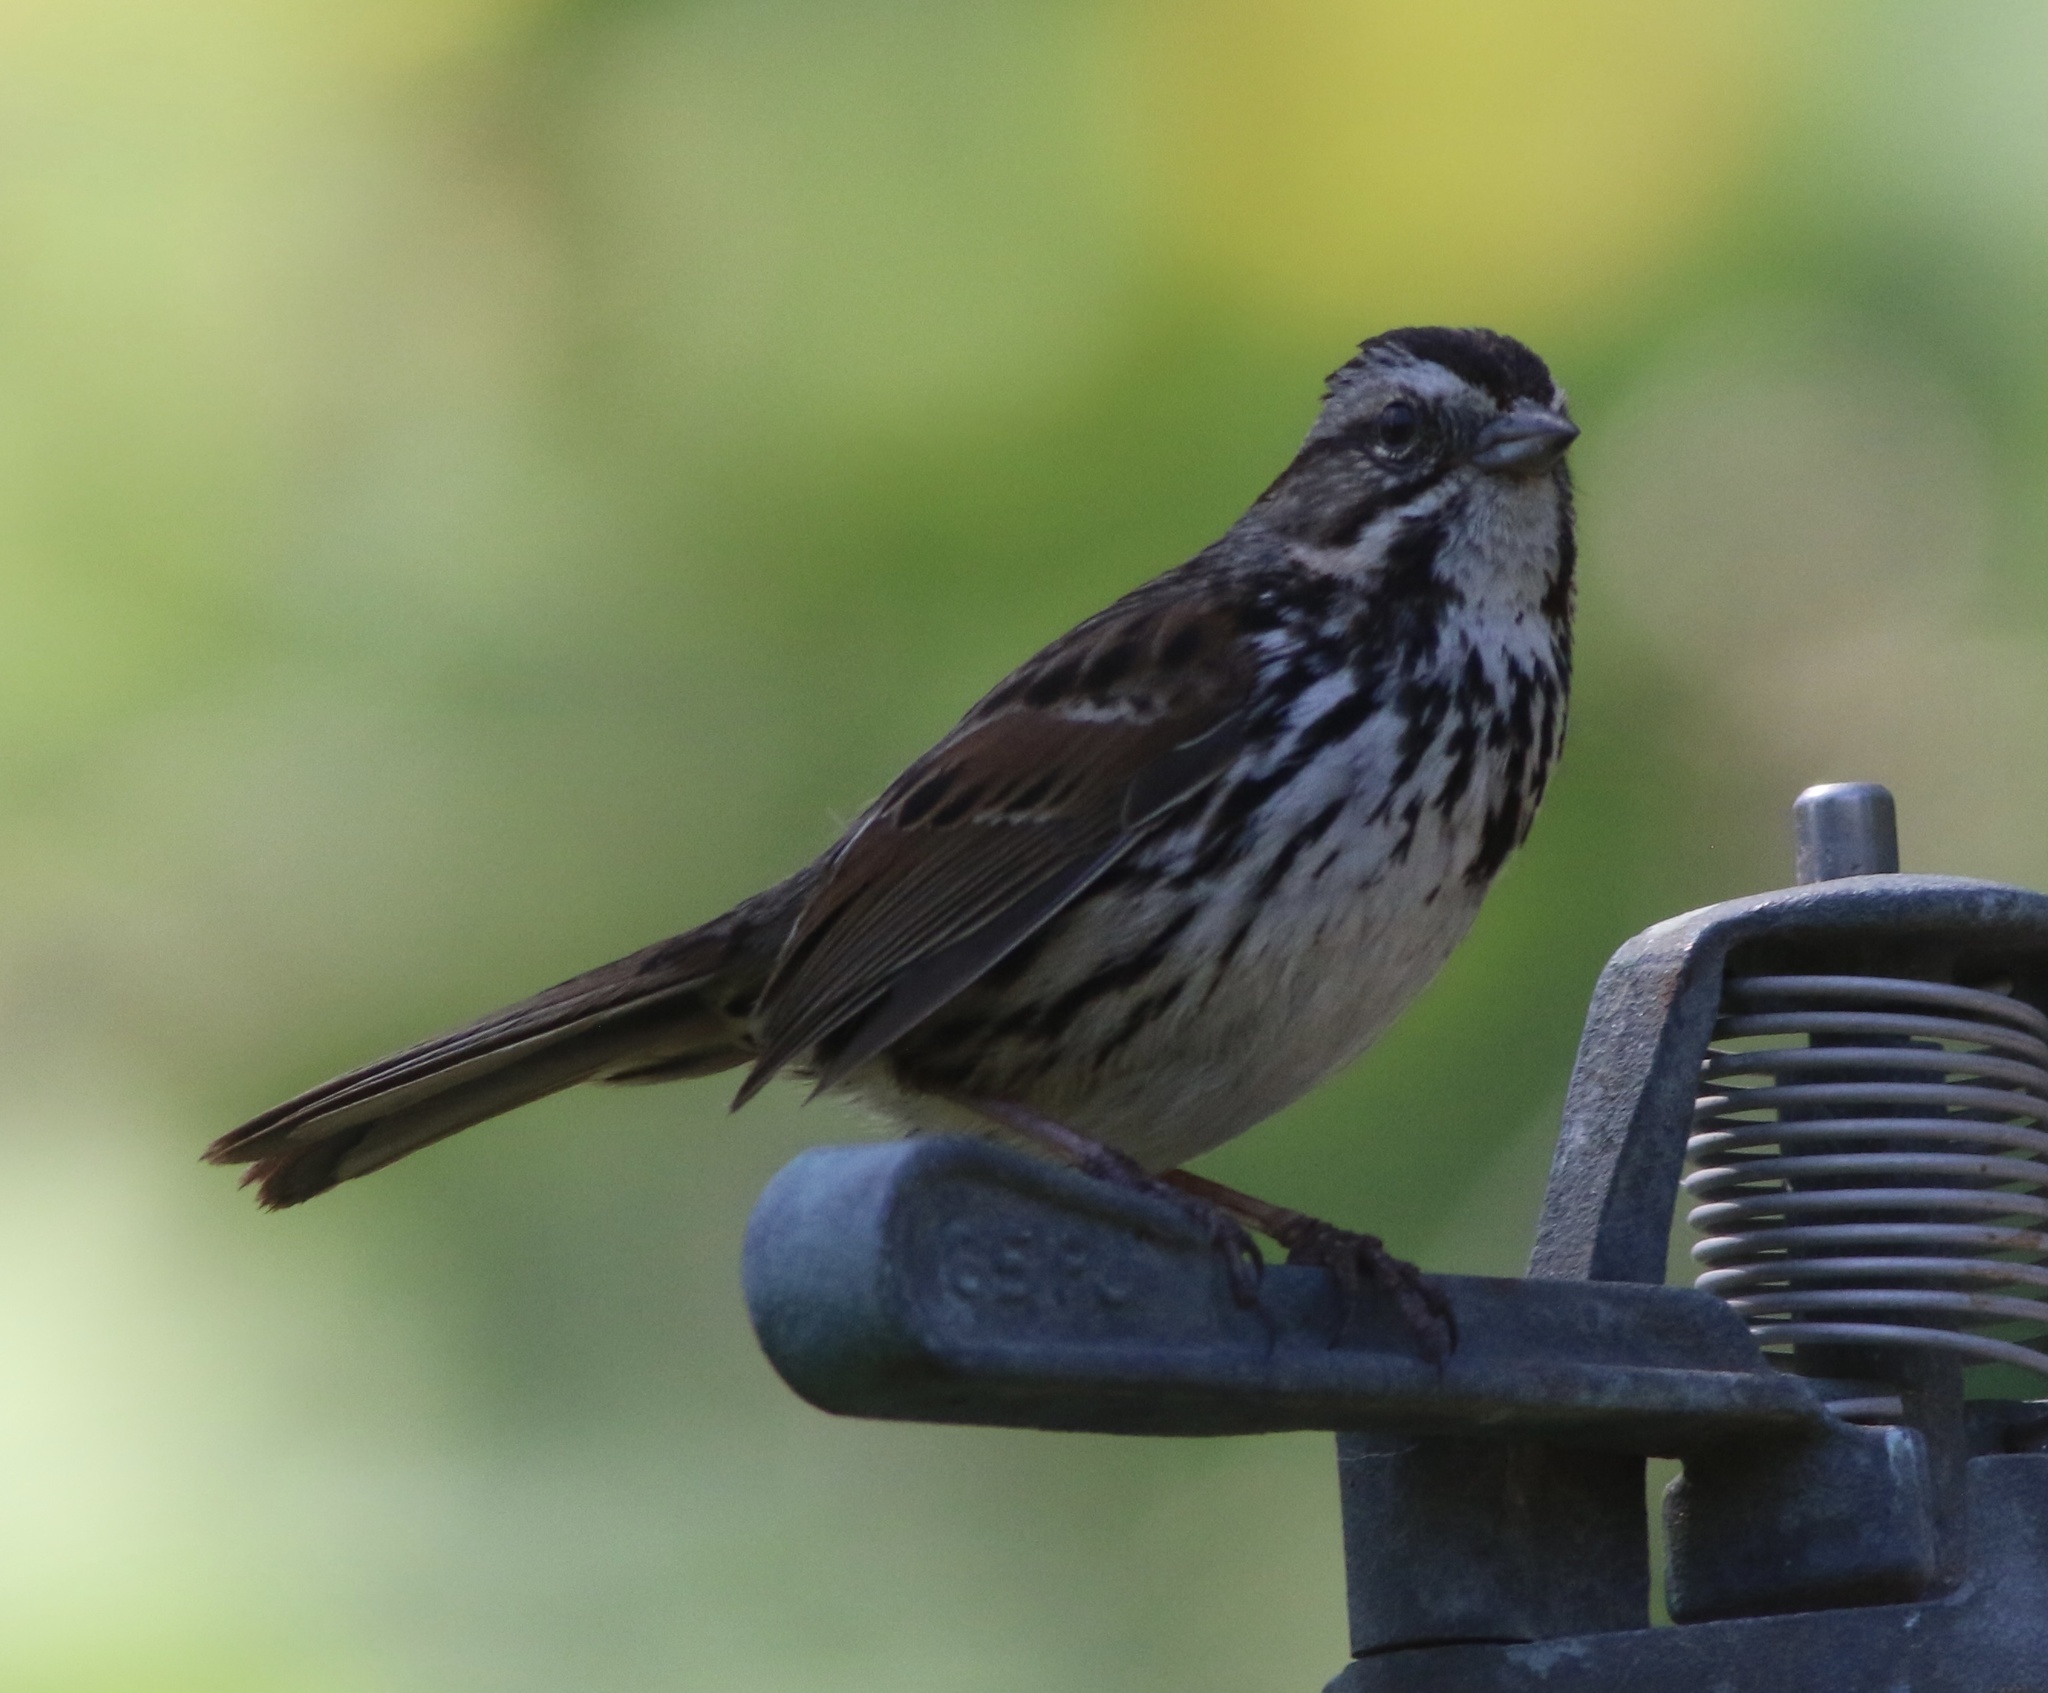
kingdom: Animalia
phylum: Chordata
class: Aves
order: Passeriformes
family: Passerellidae
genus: Melospiza
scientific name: Melospiza melodia
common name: Song sparrow
